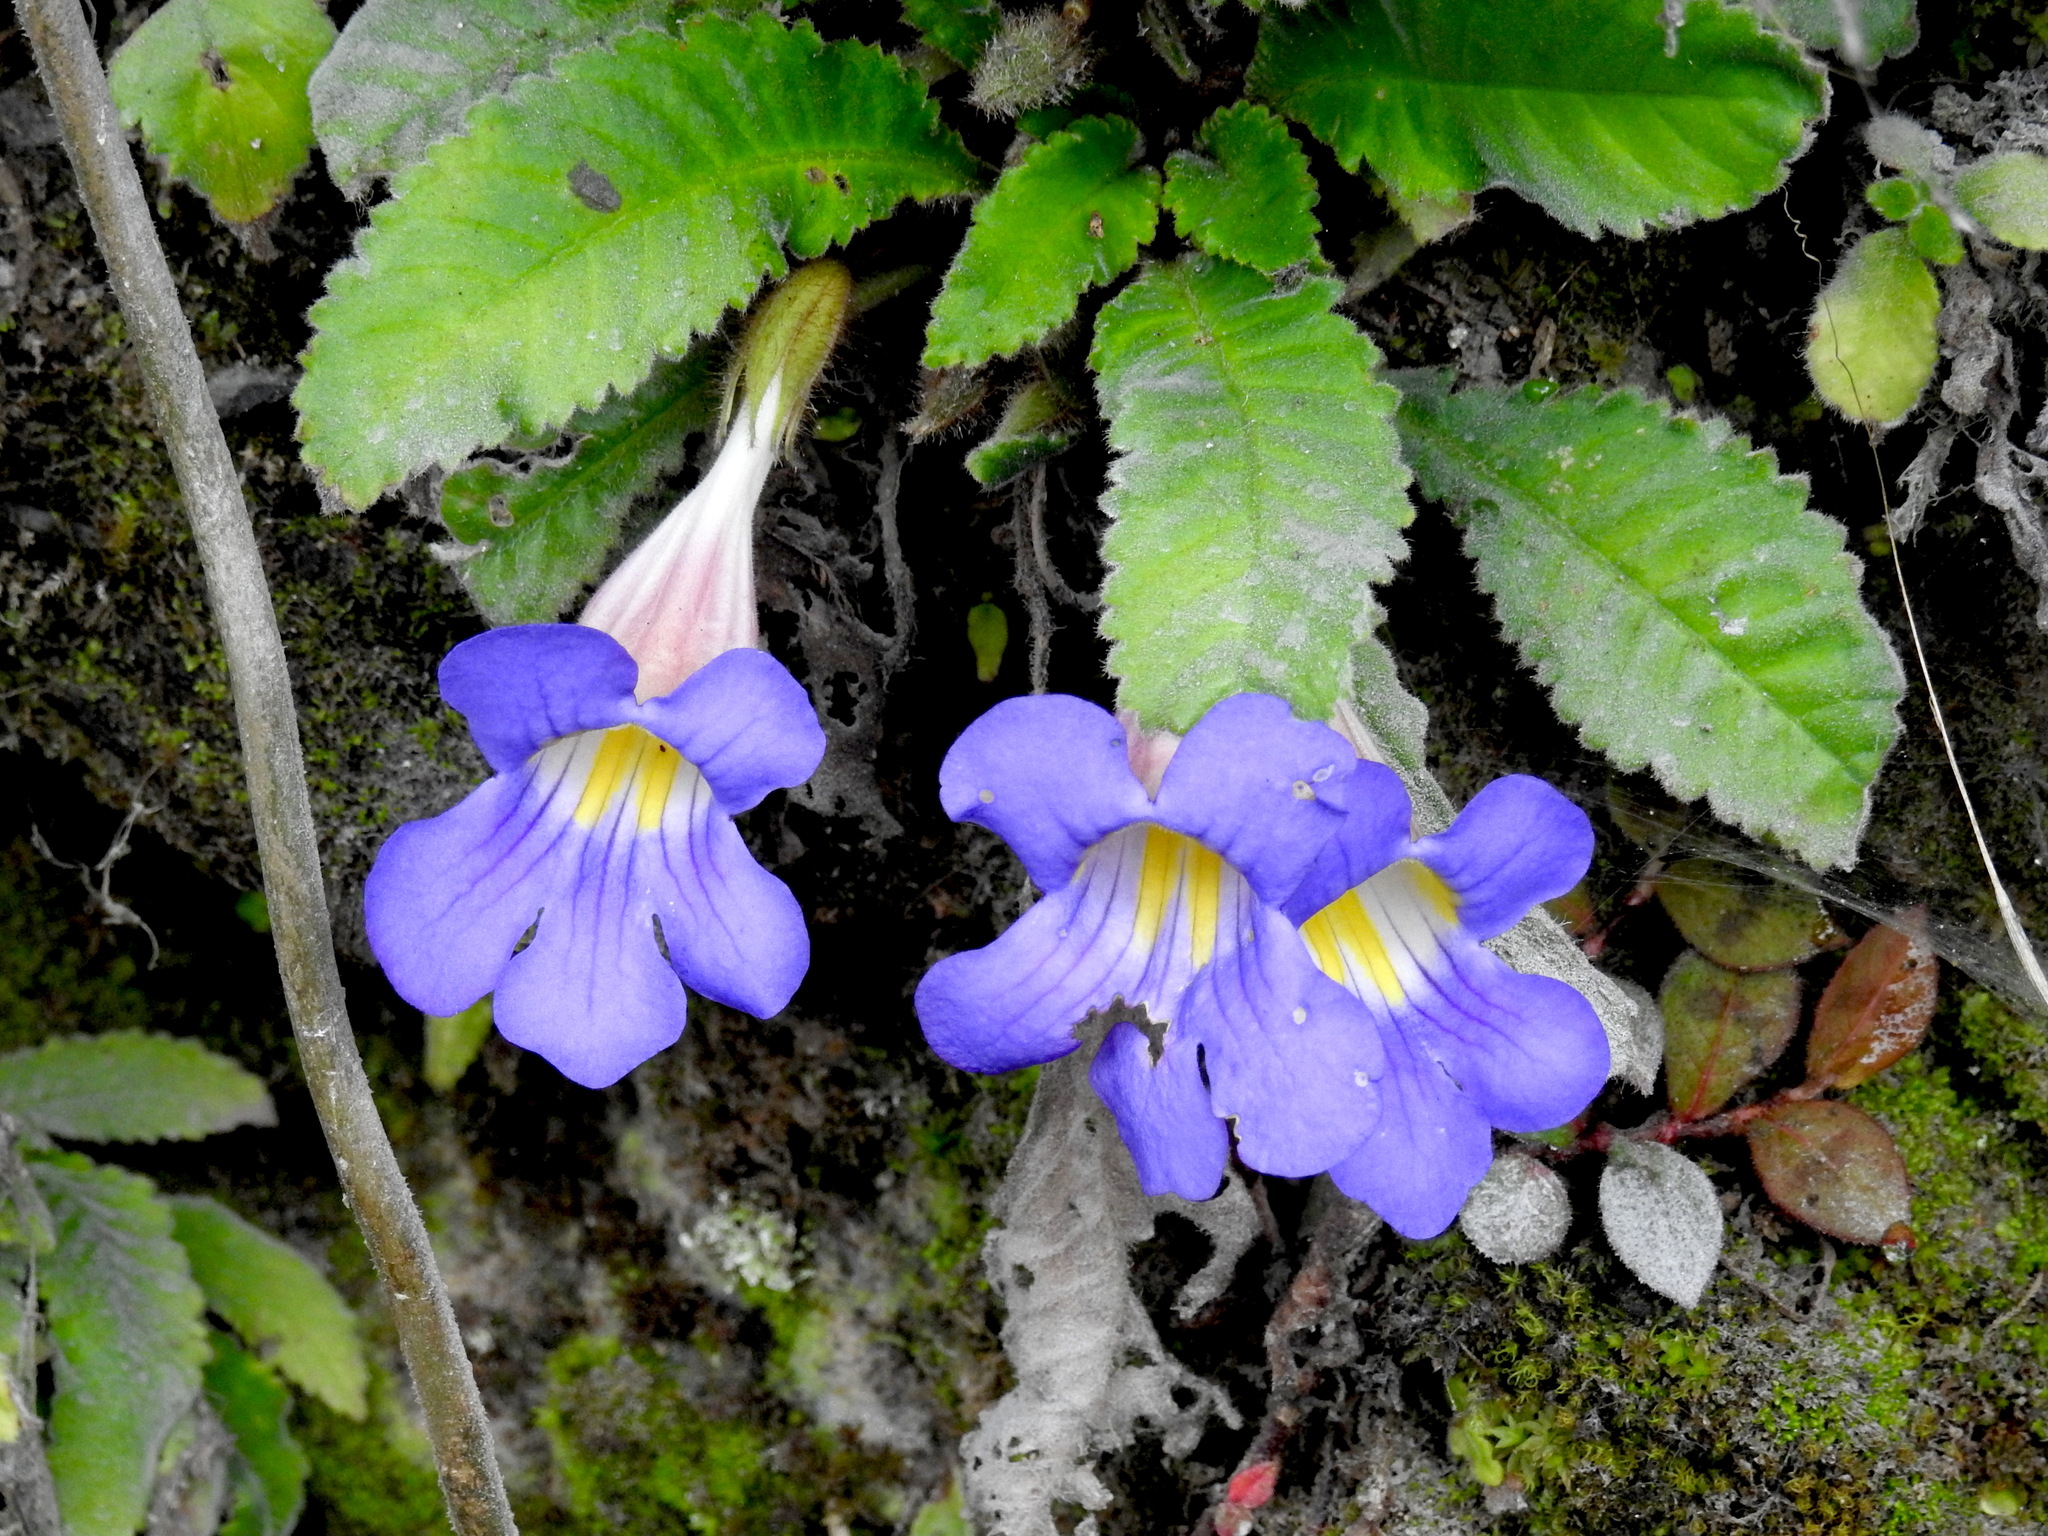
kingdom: Plantae
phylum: Tracheophyta
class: Magnoliopsida
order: Lamiales
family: Gesneriaceae
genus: Henckelia
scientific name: Henckelia mishmiensis
